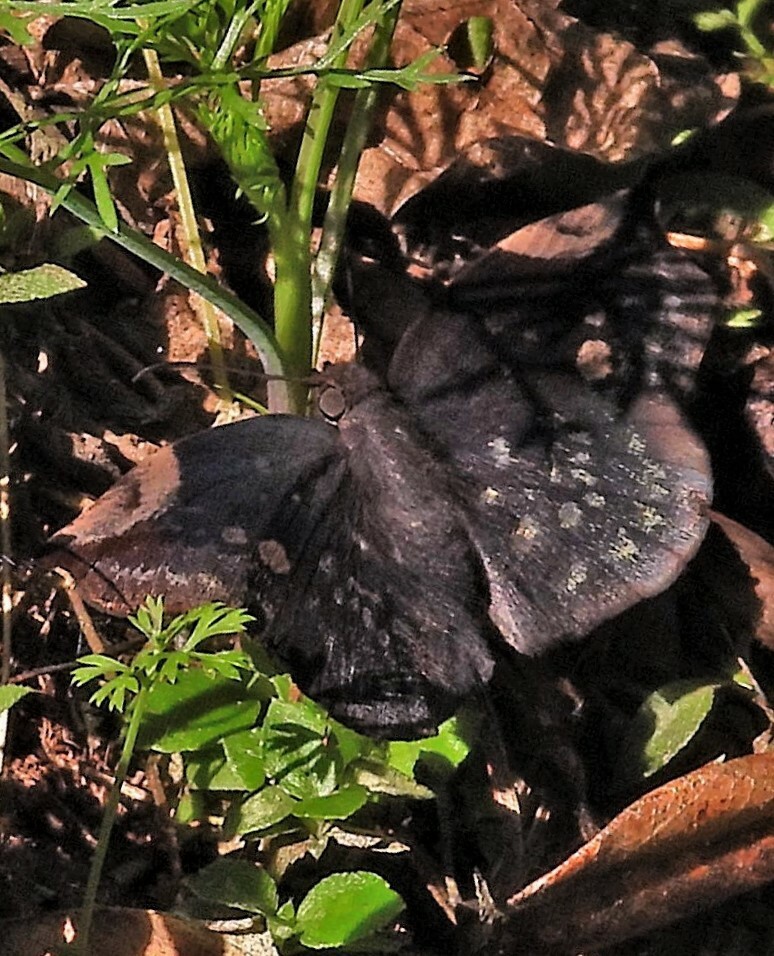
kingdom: Animalia
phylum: Arthropoda
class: Insecta
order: Lepidoptera
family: Hesperiidae
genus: Achlyodes
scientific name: Achlyodes thraso
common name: Sickle-winged skipper
